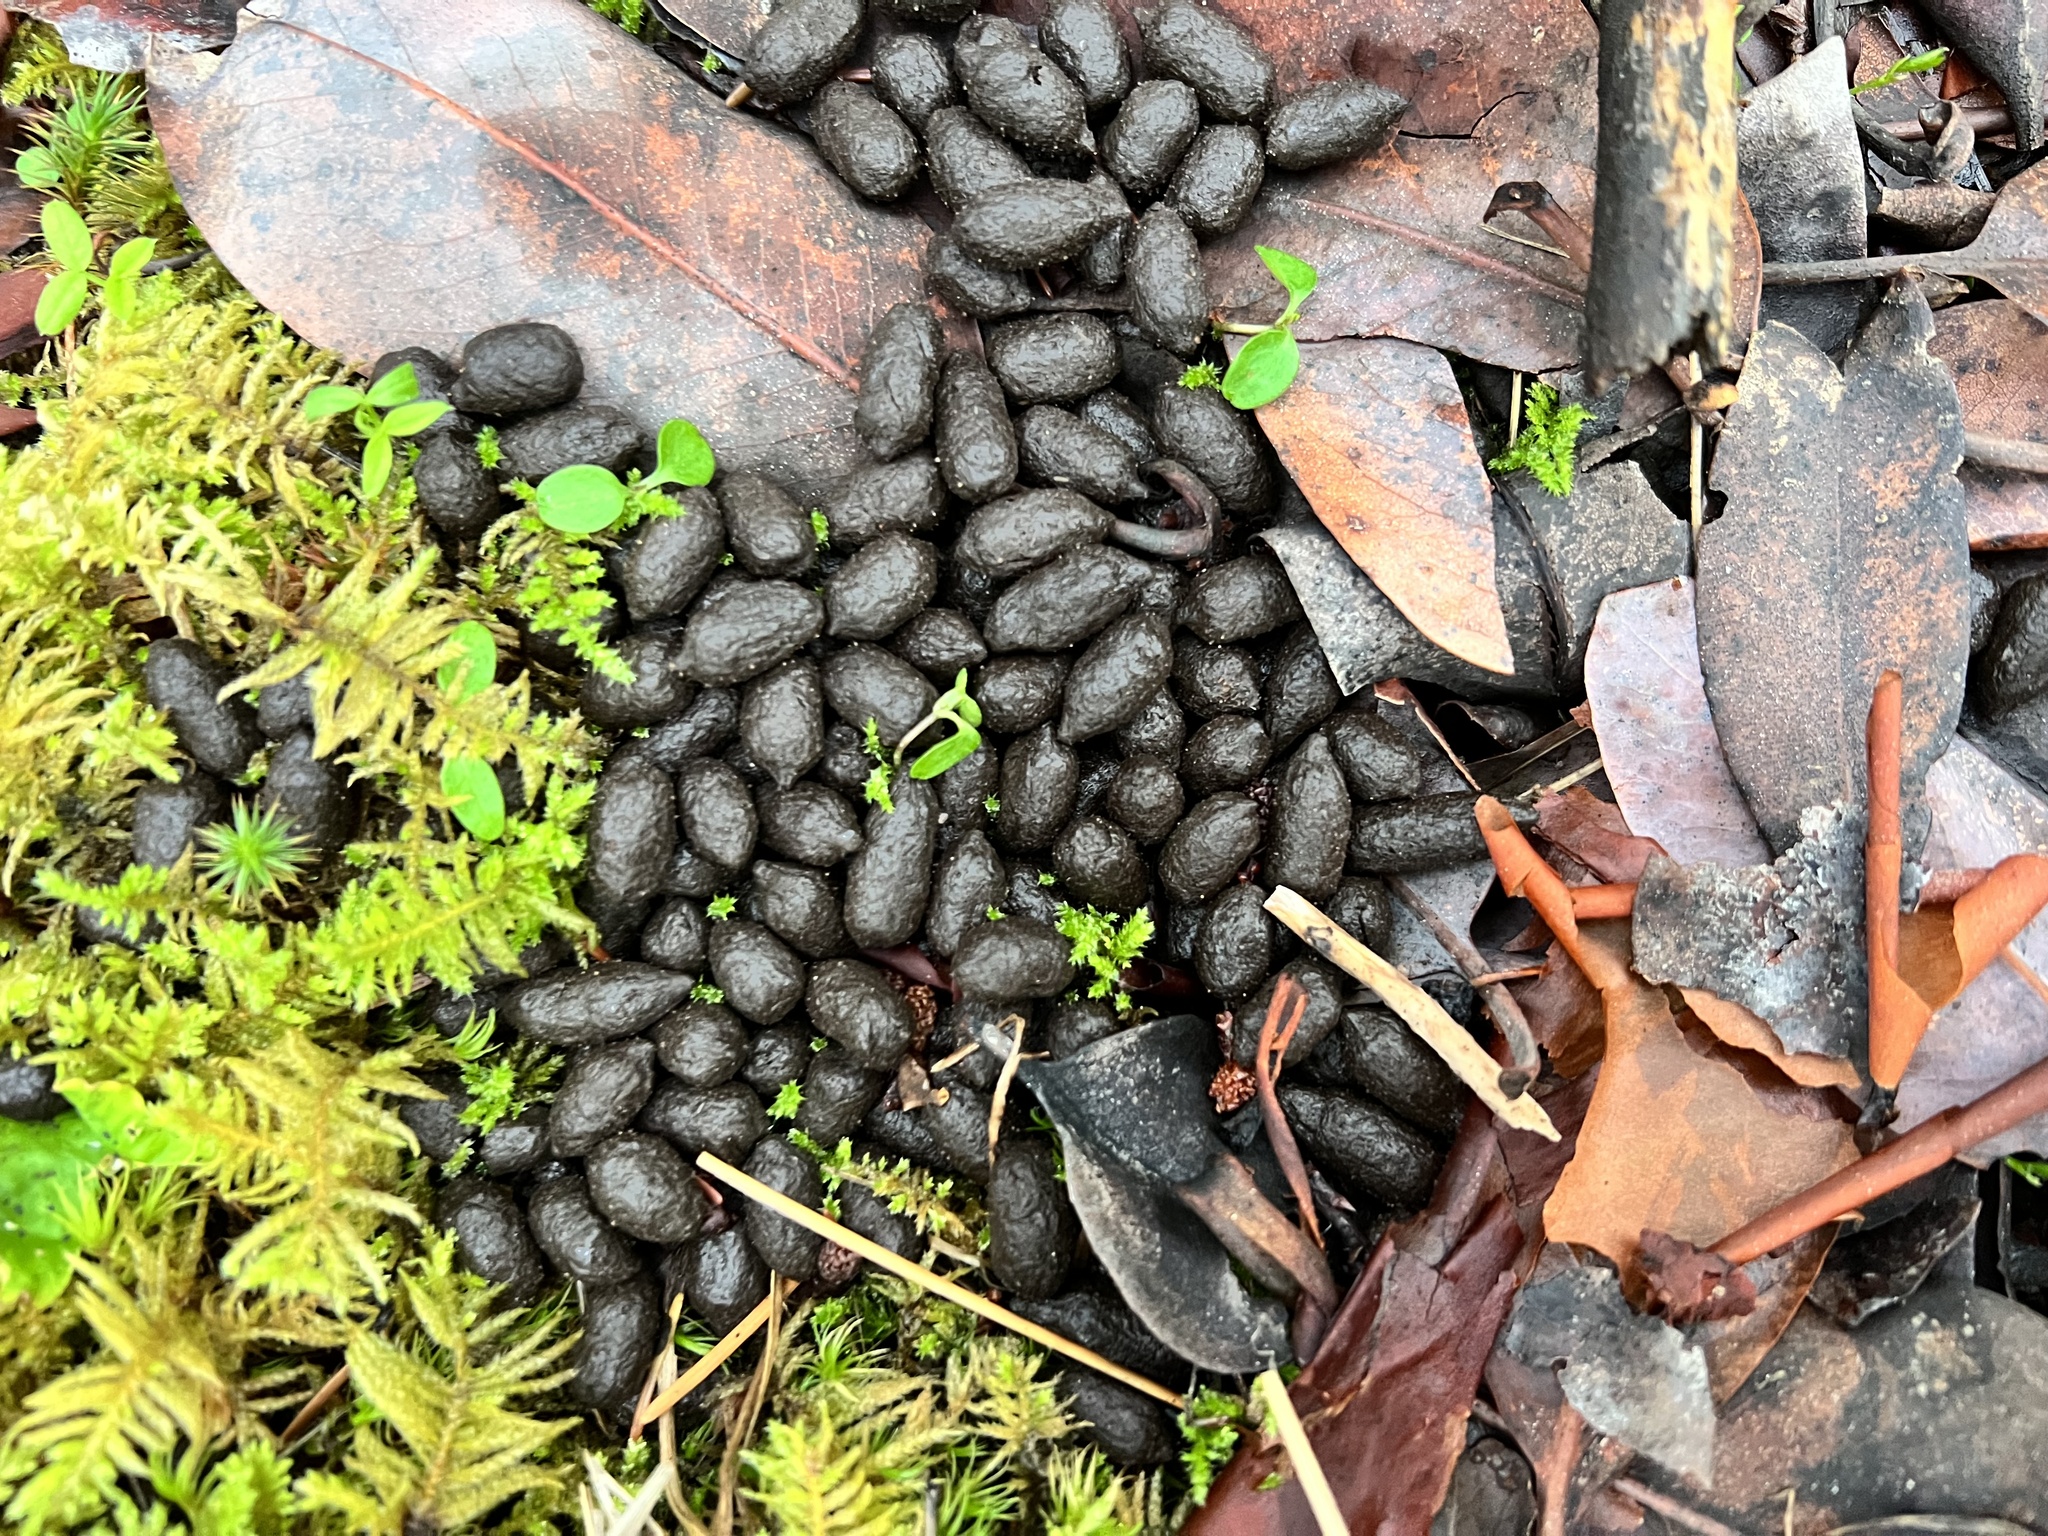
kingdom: Animalia
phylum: Chordata
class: Mammalia
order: Artiodactyla
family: Cervidae
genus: Odocoileus
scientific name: Odocoileus hemionus
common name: Mule deer
